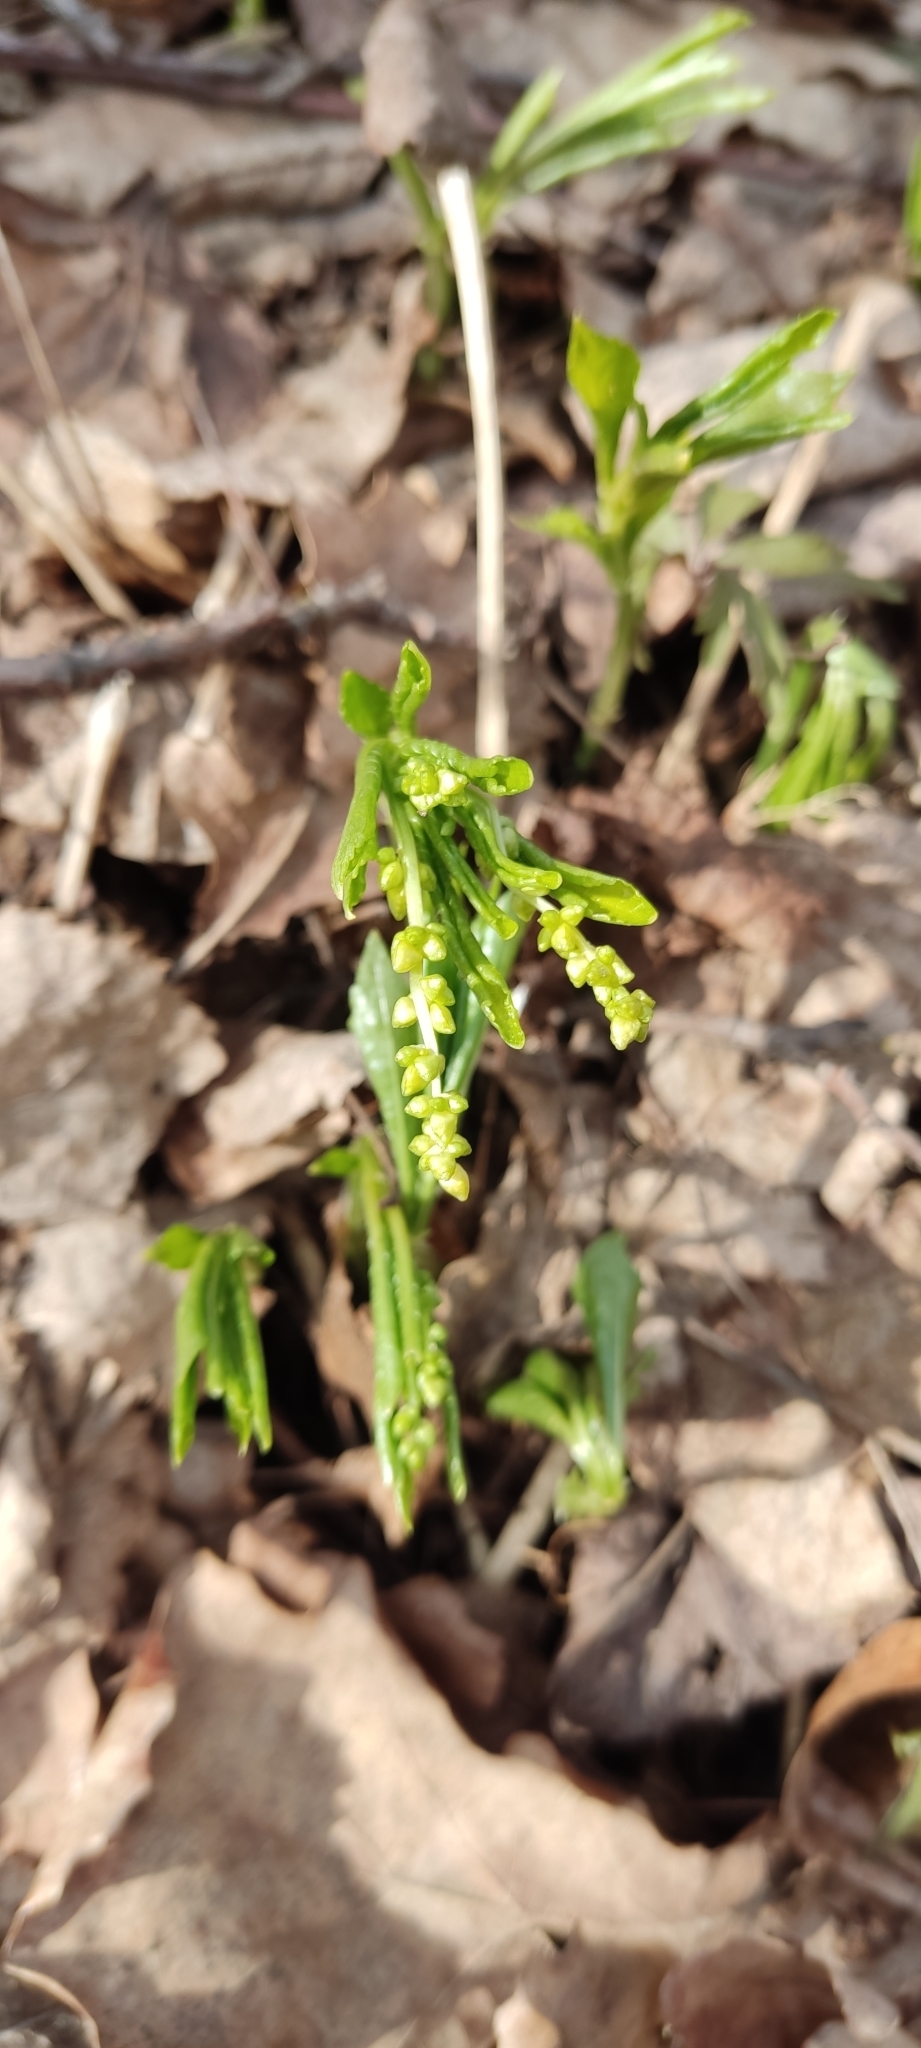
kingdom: Plantae
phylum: Tracheophyta
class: Magnoliopsida
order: Malpighiales
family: Euphorbiaceae
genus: Mercurialis
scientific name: Mercurialis perennis
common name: Dog mercury
